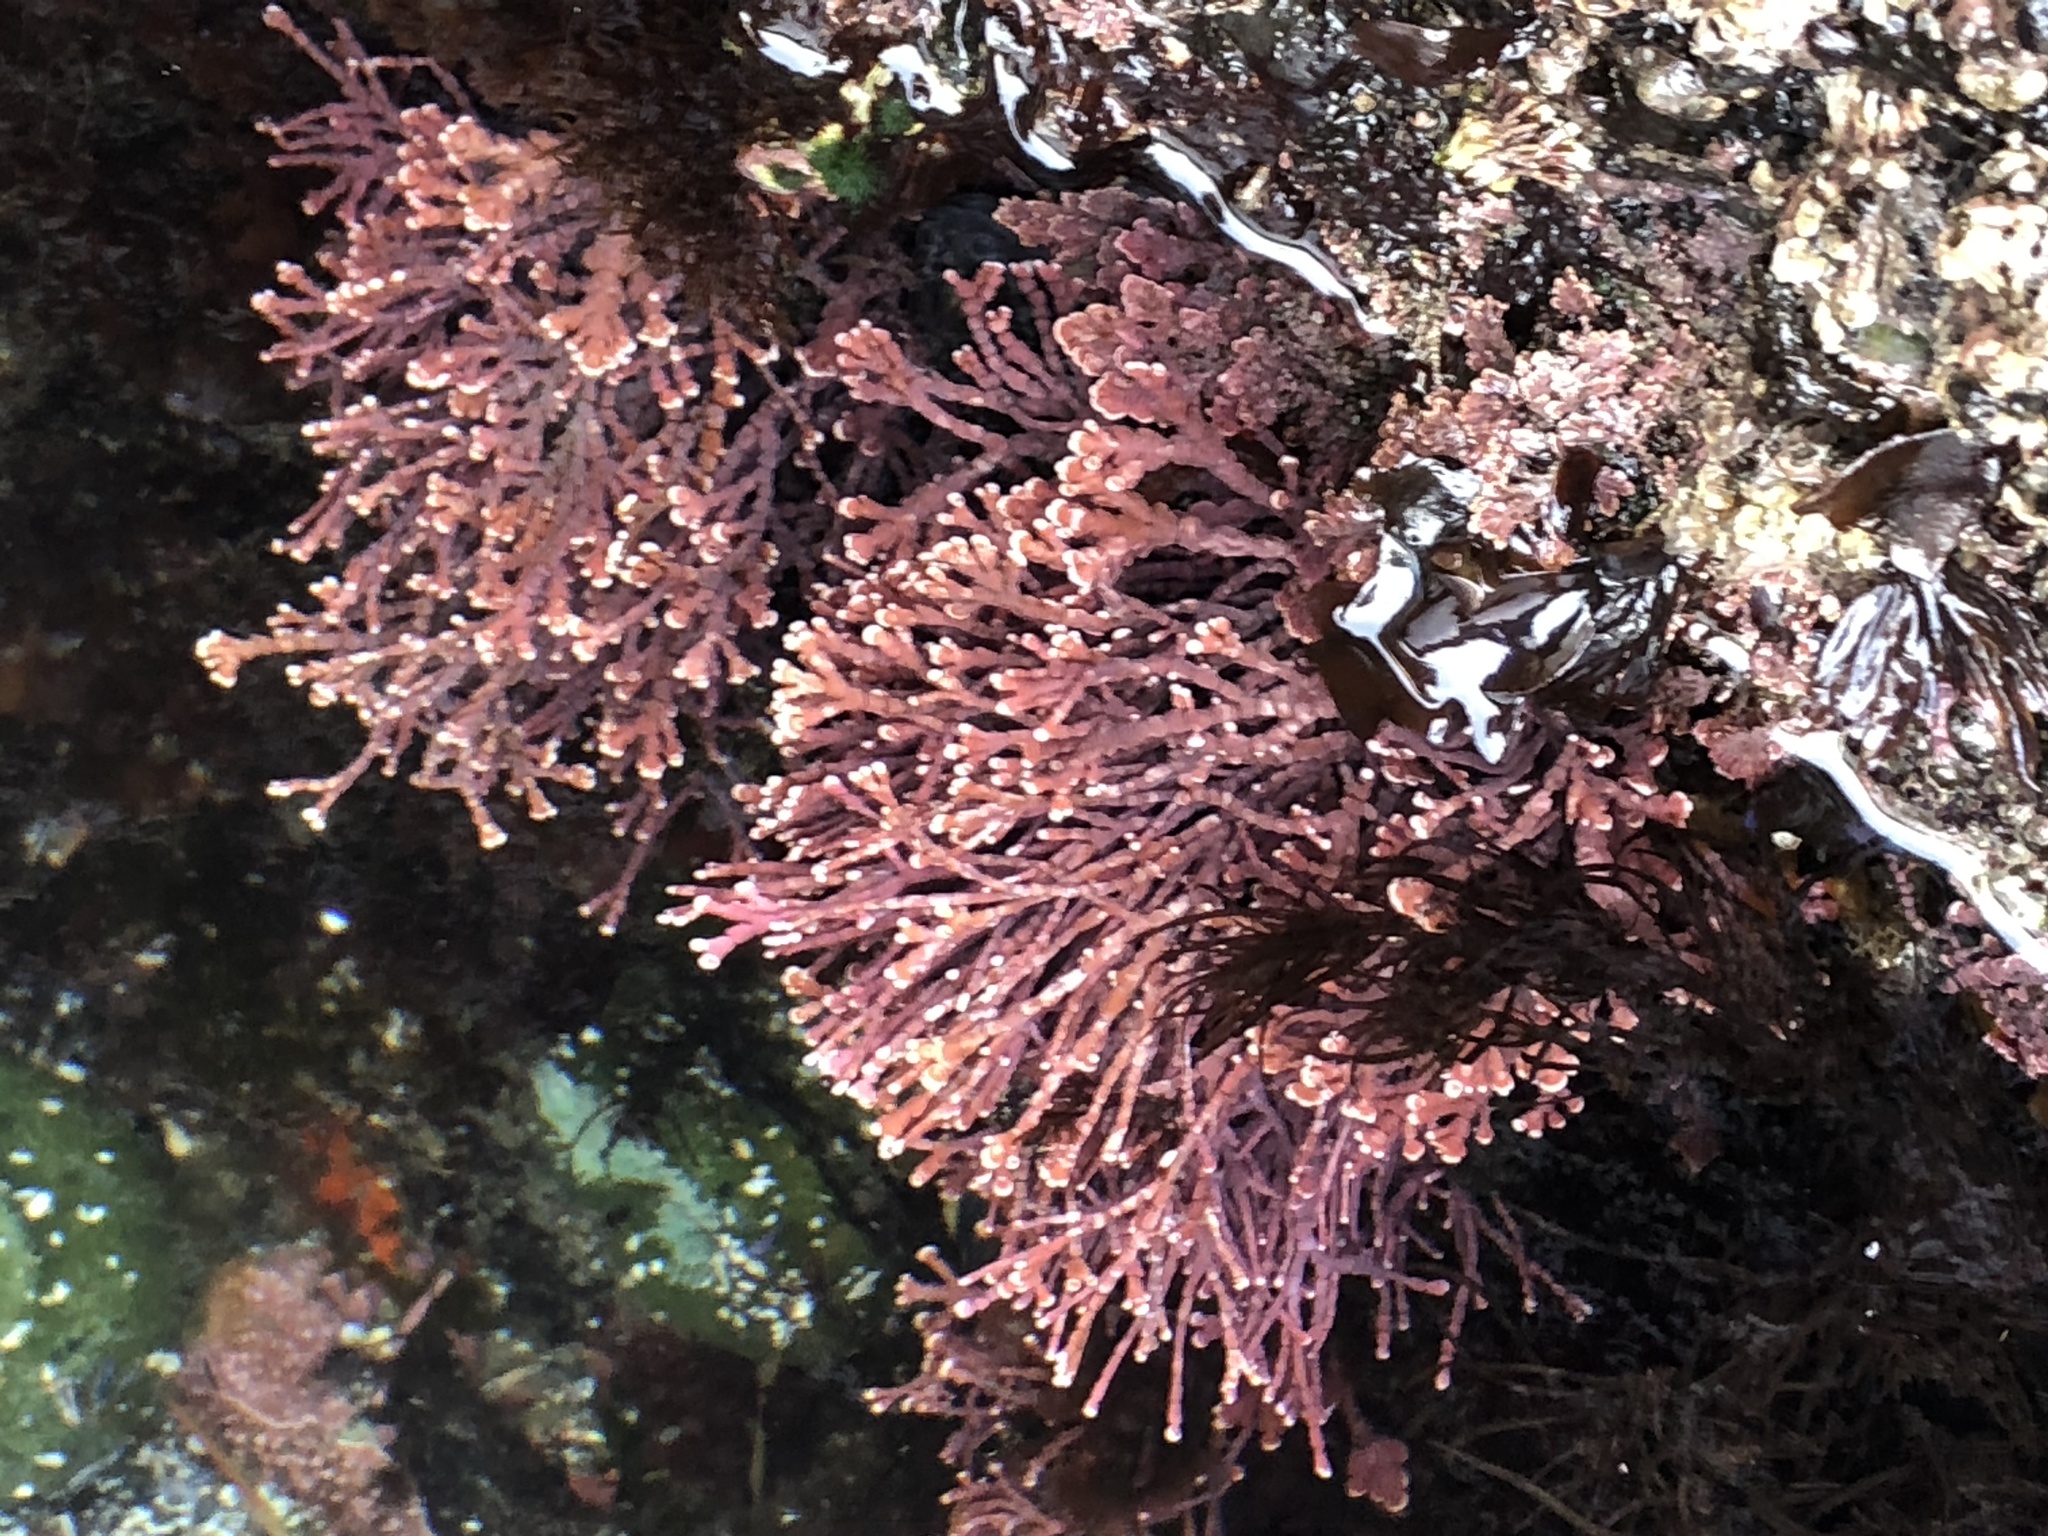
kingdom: Plantae
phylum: Rhodophyta
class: Florideophyceae
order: Corallinales
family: Corallinaceae
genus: Calliarthron
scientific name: Calliarthron tuberculosum
